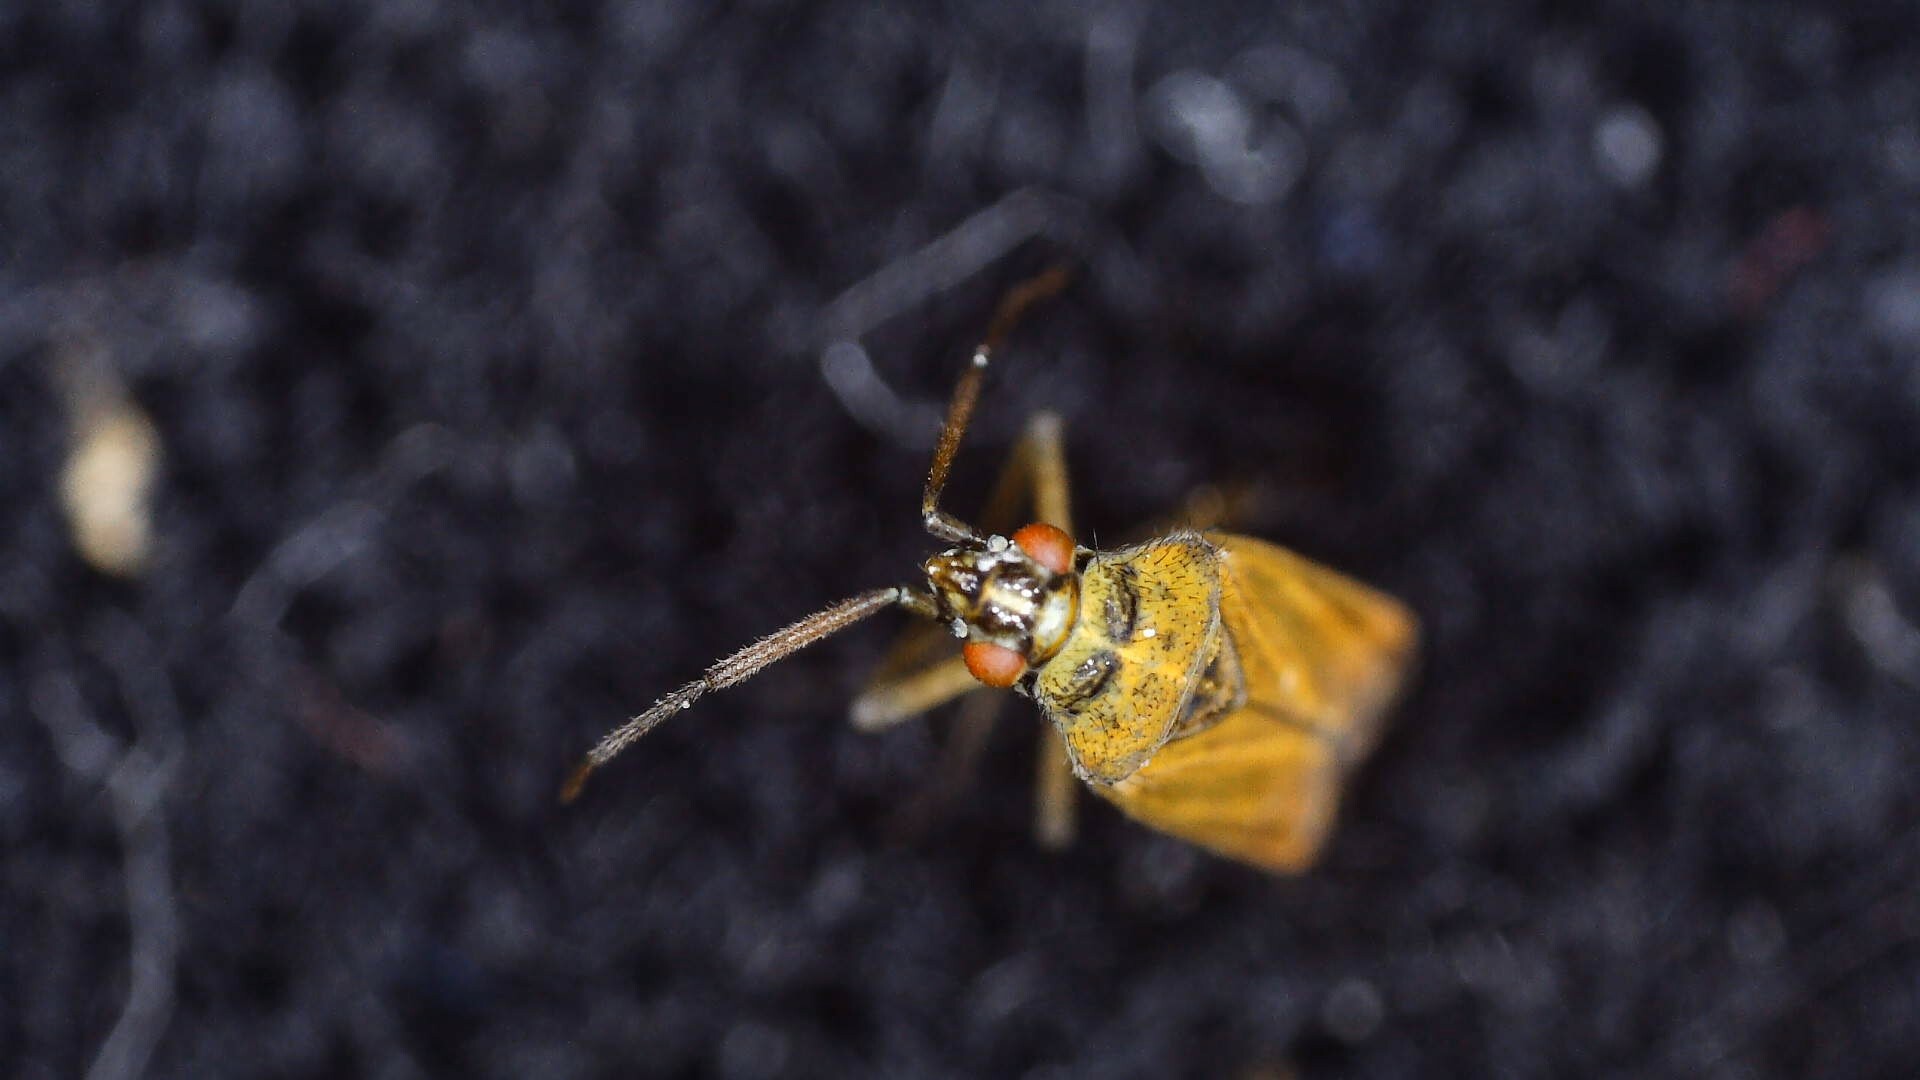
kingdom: Animalia
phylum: Arthropoda
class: Insecta
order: Hemiptera
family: Miridae
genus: Hoplomachus
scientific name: Hoplomachus thunbergii
